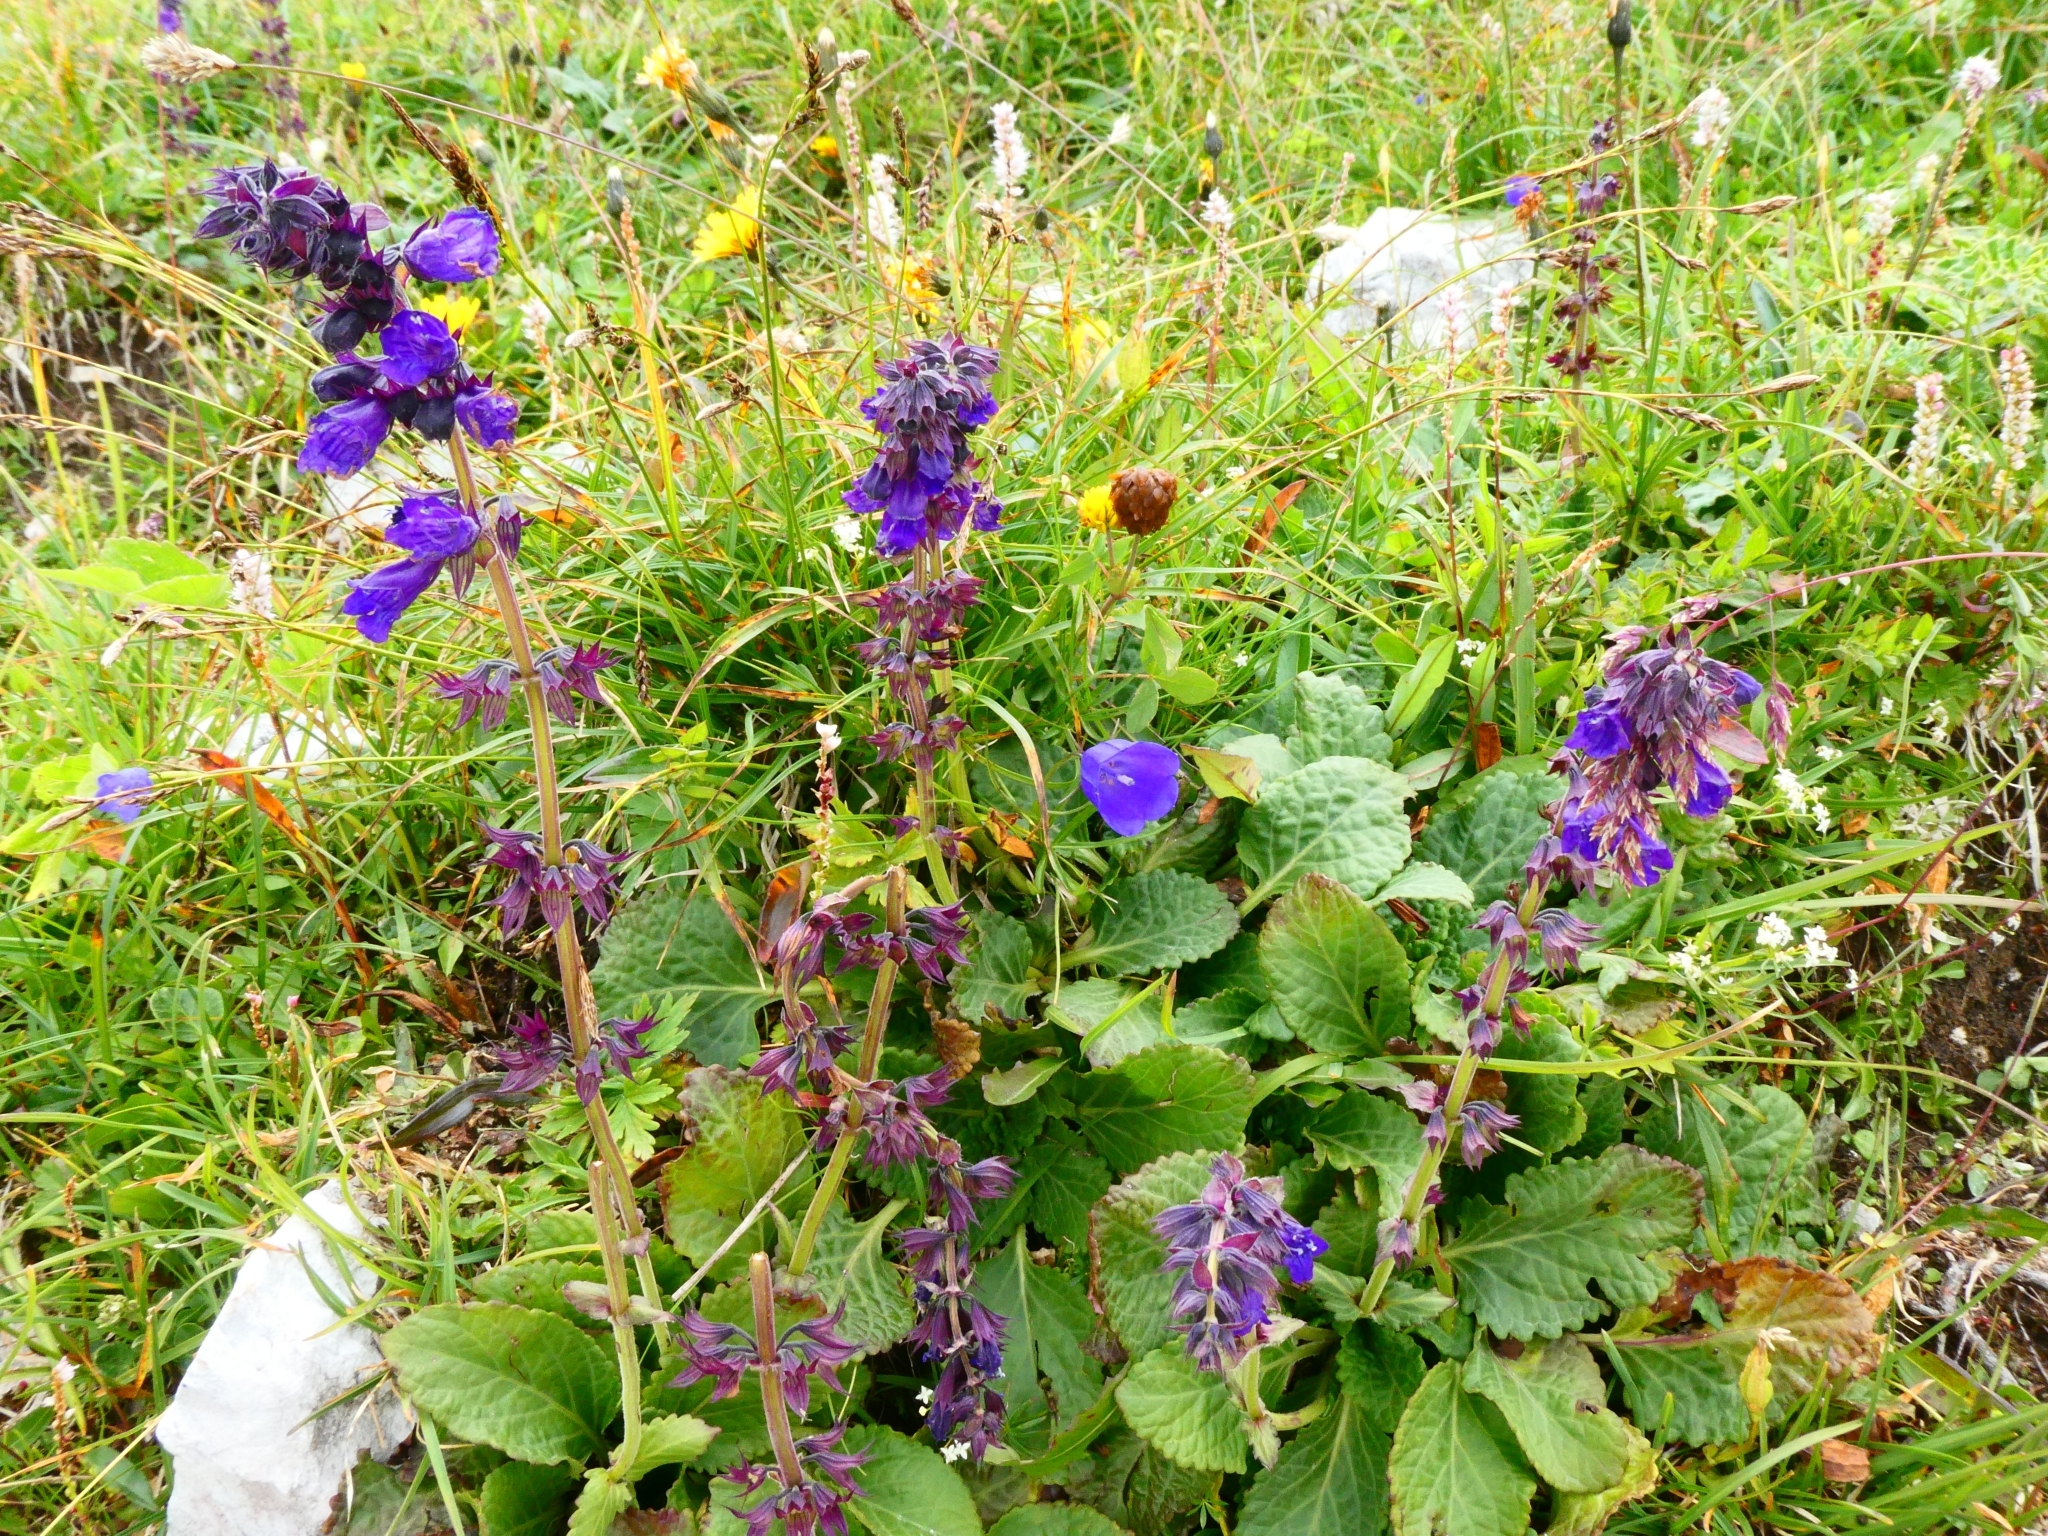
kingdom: Plantae
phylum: Tracheophyta
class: Magnoliopsida
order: Lamiales
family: Lamiaceae
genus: Horminum
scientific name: Horminum pyrenaicum
